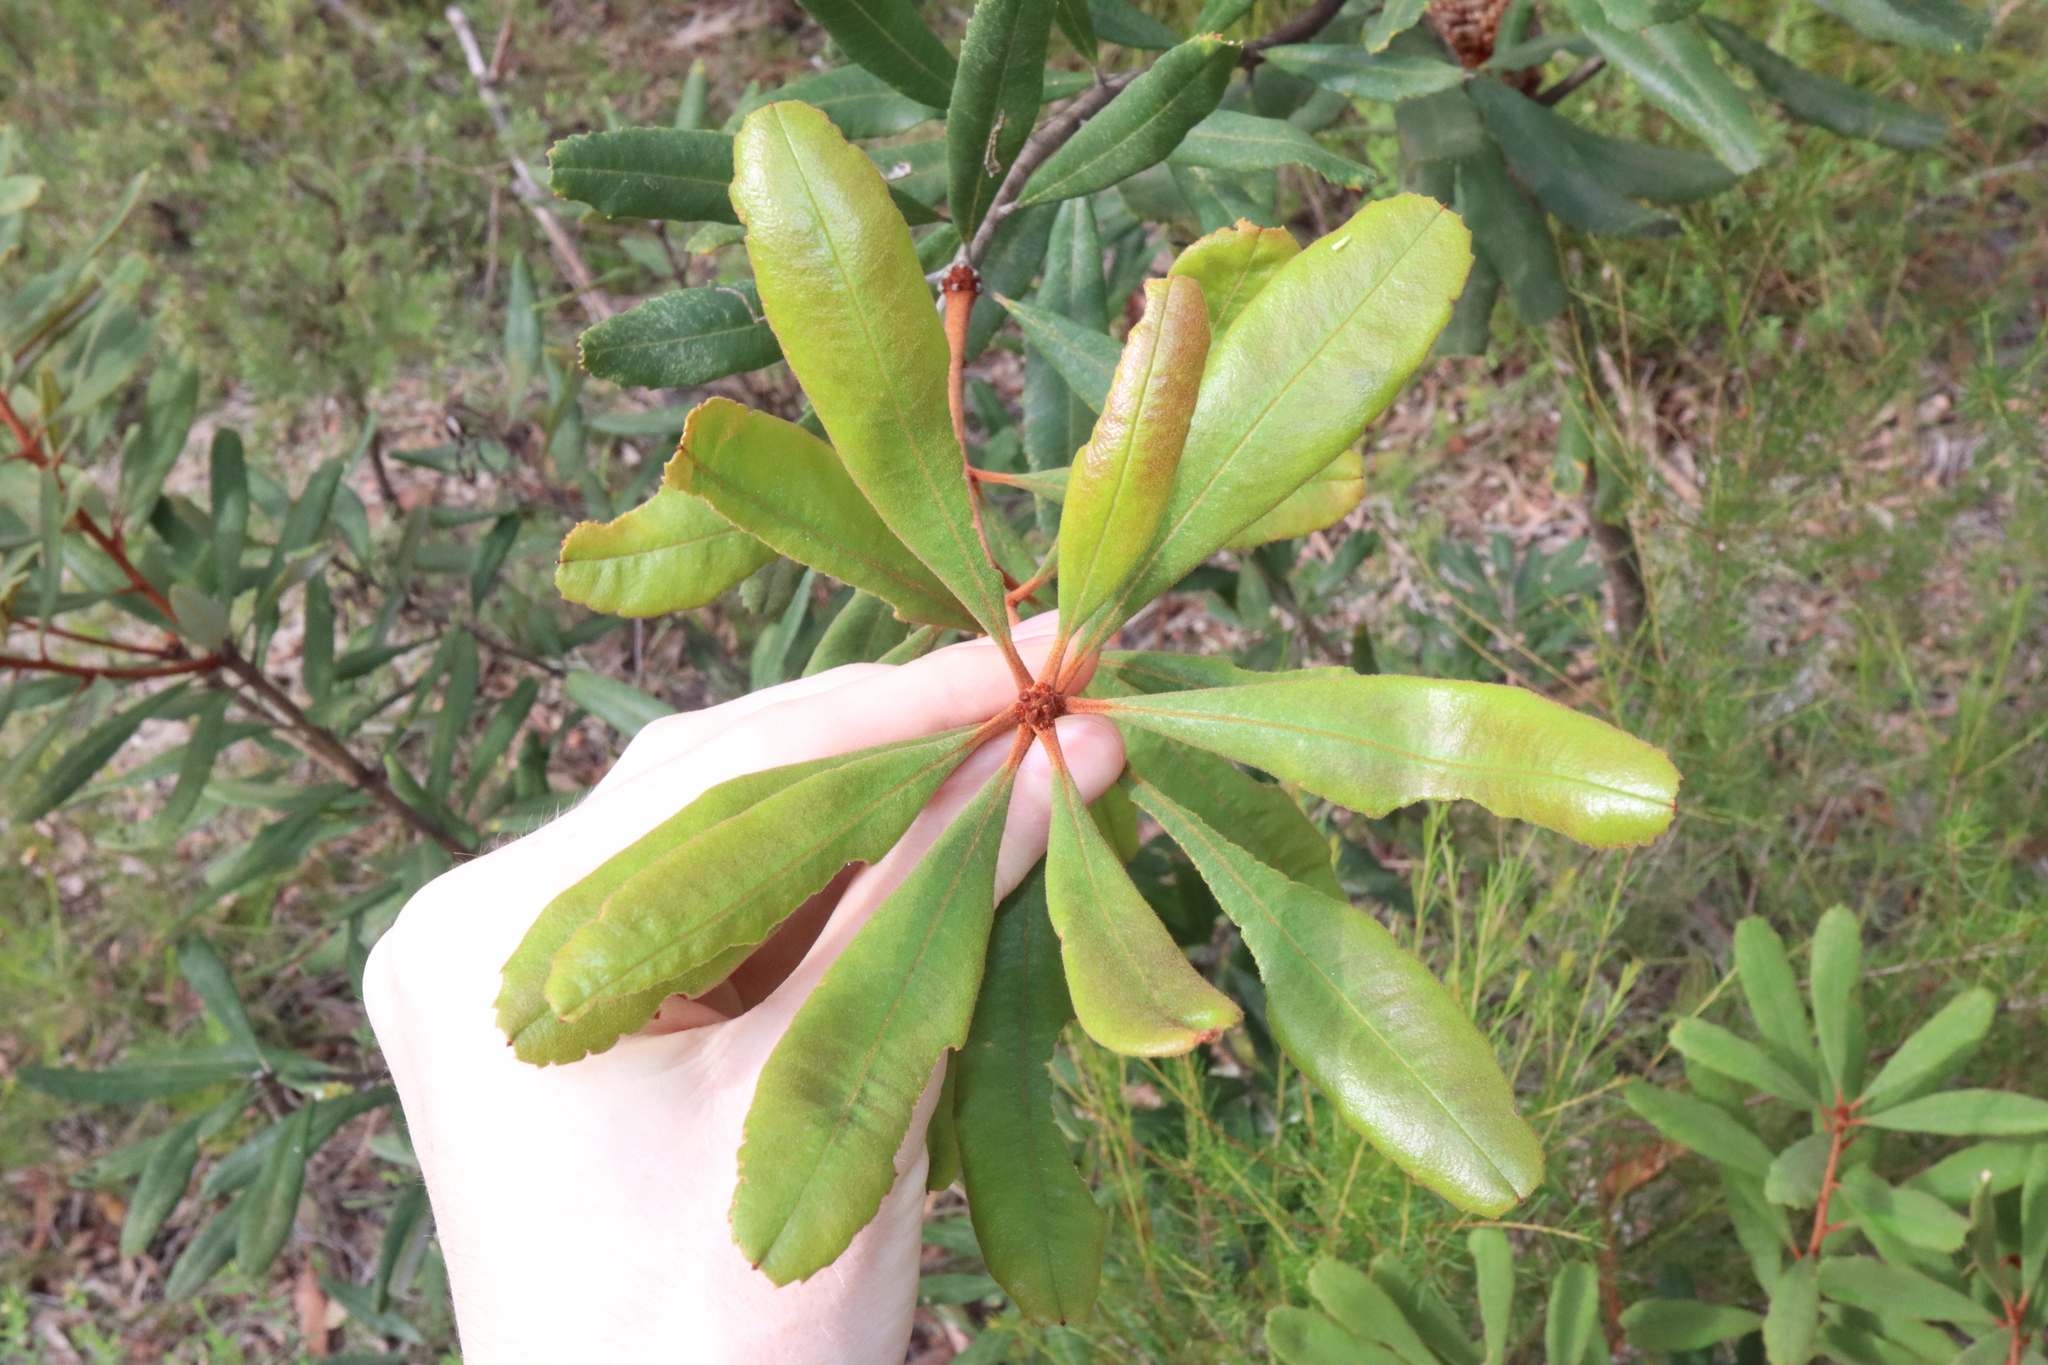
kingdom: Plantae
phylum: Tracheophyta
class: Magnoliopsida
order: Proteales
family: Proteaceae
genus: Banksia
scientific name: Banksia oblongifolia
